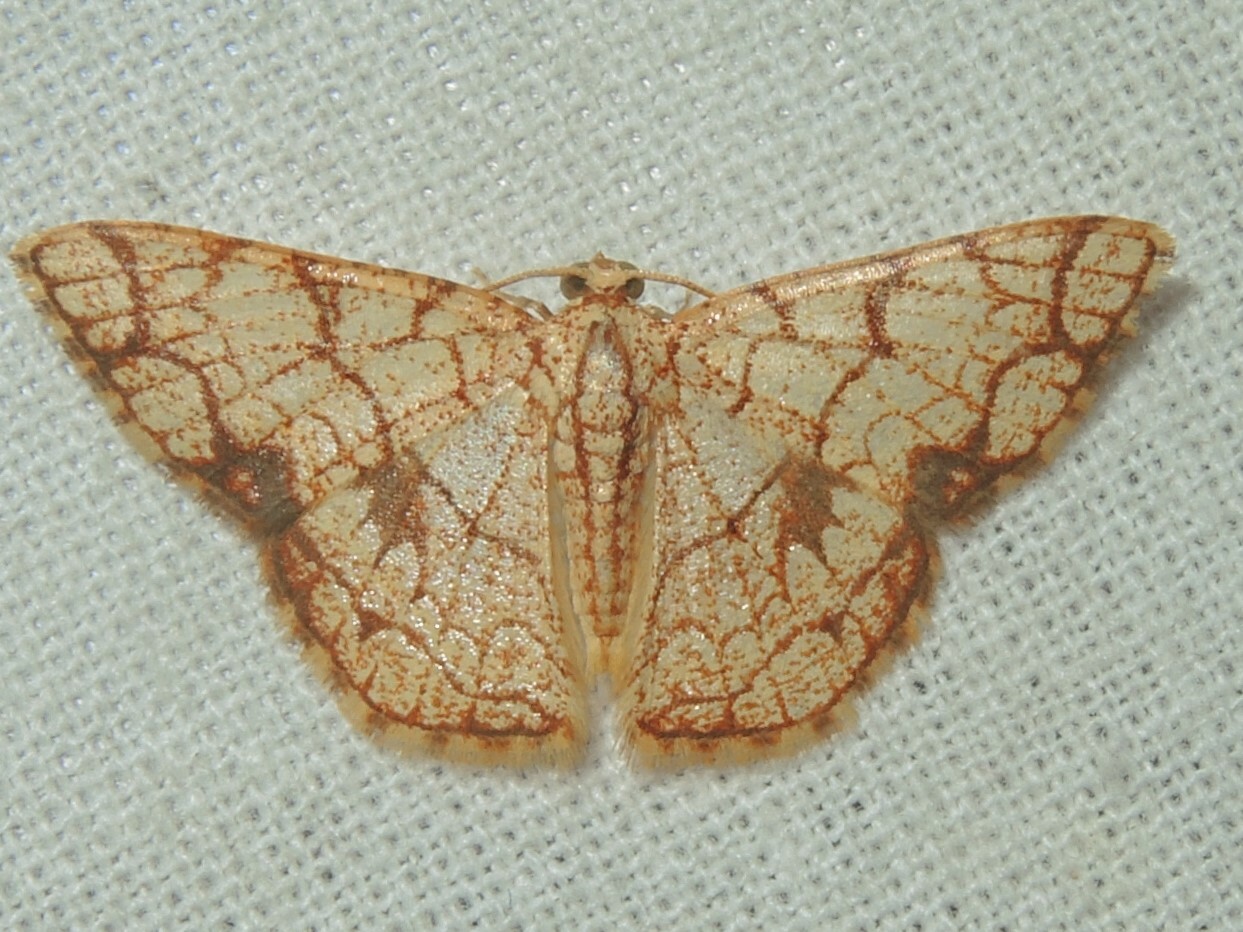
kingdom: Animalia
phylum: Arthropoda
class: Insecta
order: Lepidoptera
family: Geometridae
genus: Heterostegane
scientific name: Heterostegane subtessellata
